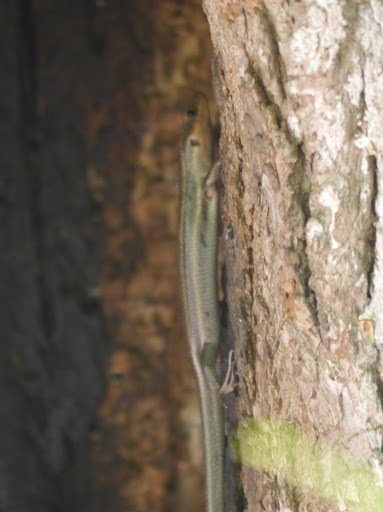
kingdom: Animalia
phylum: Chordata
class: Squamata
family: Scincidae
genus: Plestiodon
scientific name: Plestiodon fasciatus
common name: Five-lined skink
